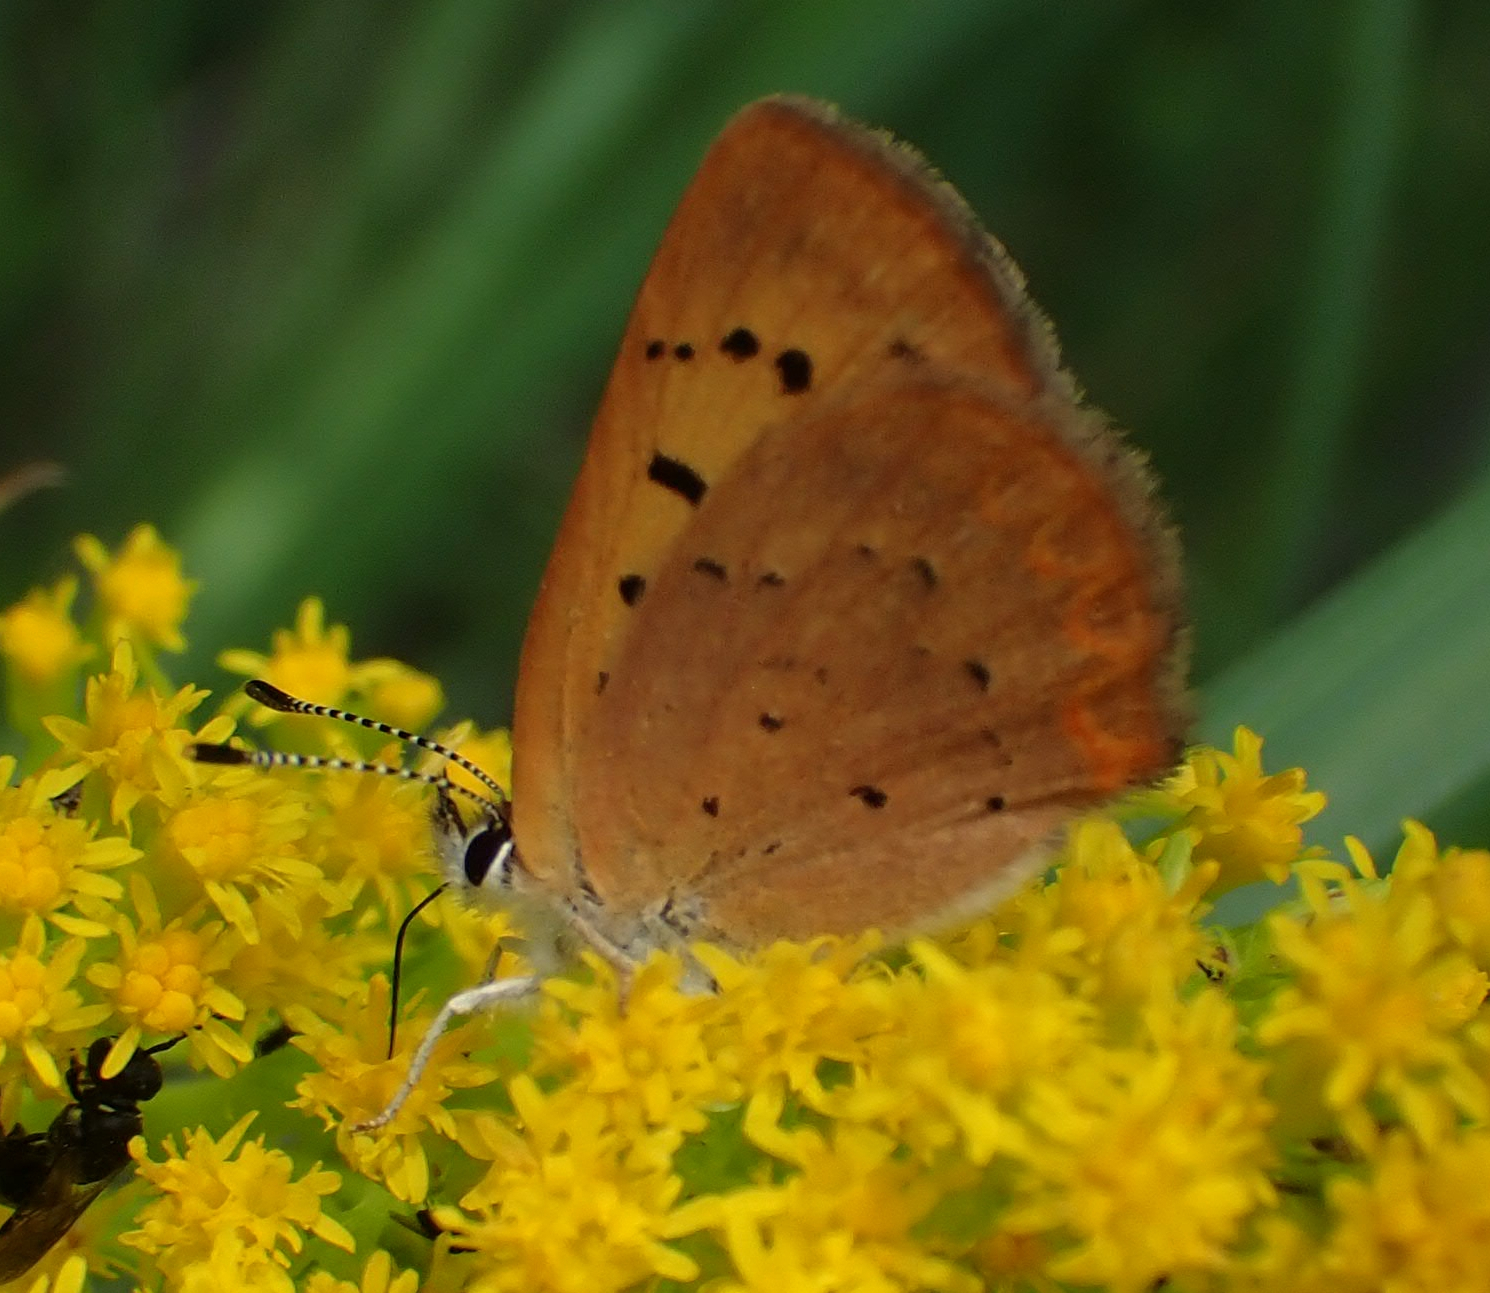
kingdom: Animalia
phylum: Arthropoda
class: Insecta
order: Lepidoptera
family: Lycaenidae
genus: Tharsalea
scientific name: Tharsalea dorcas
